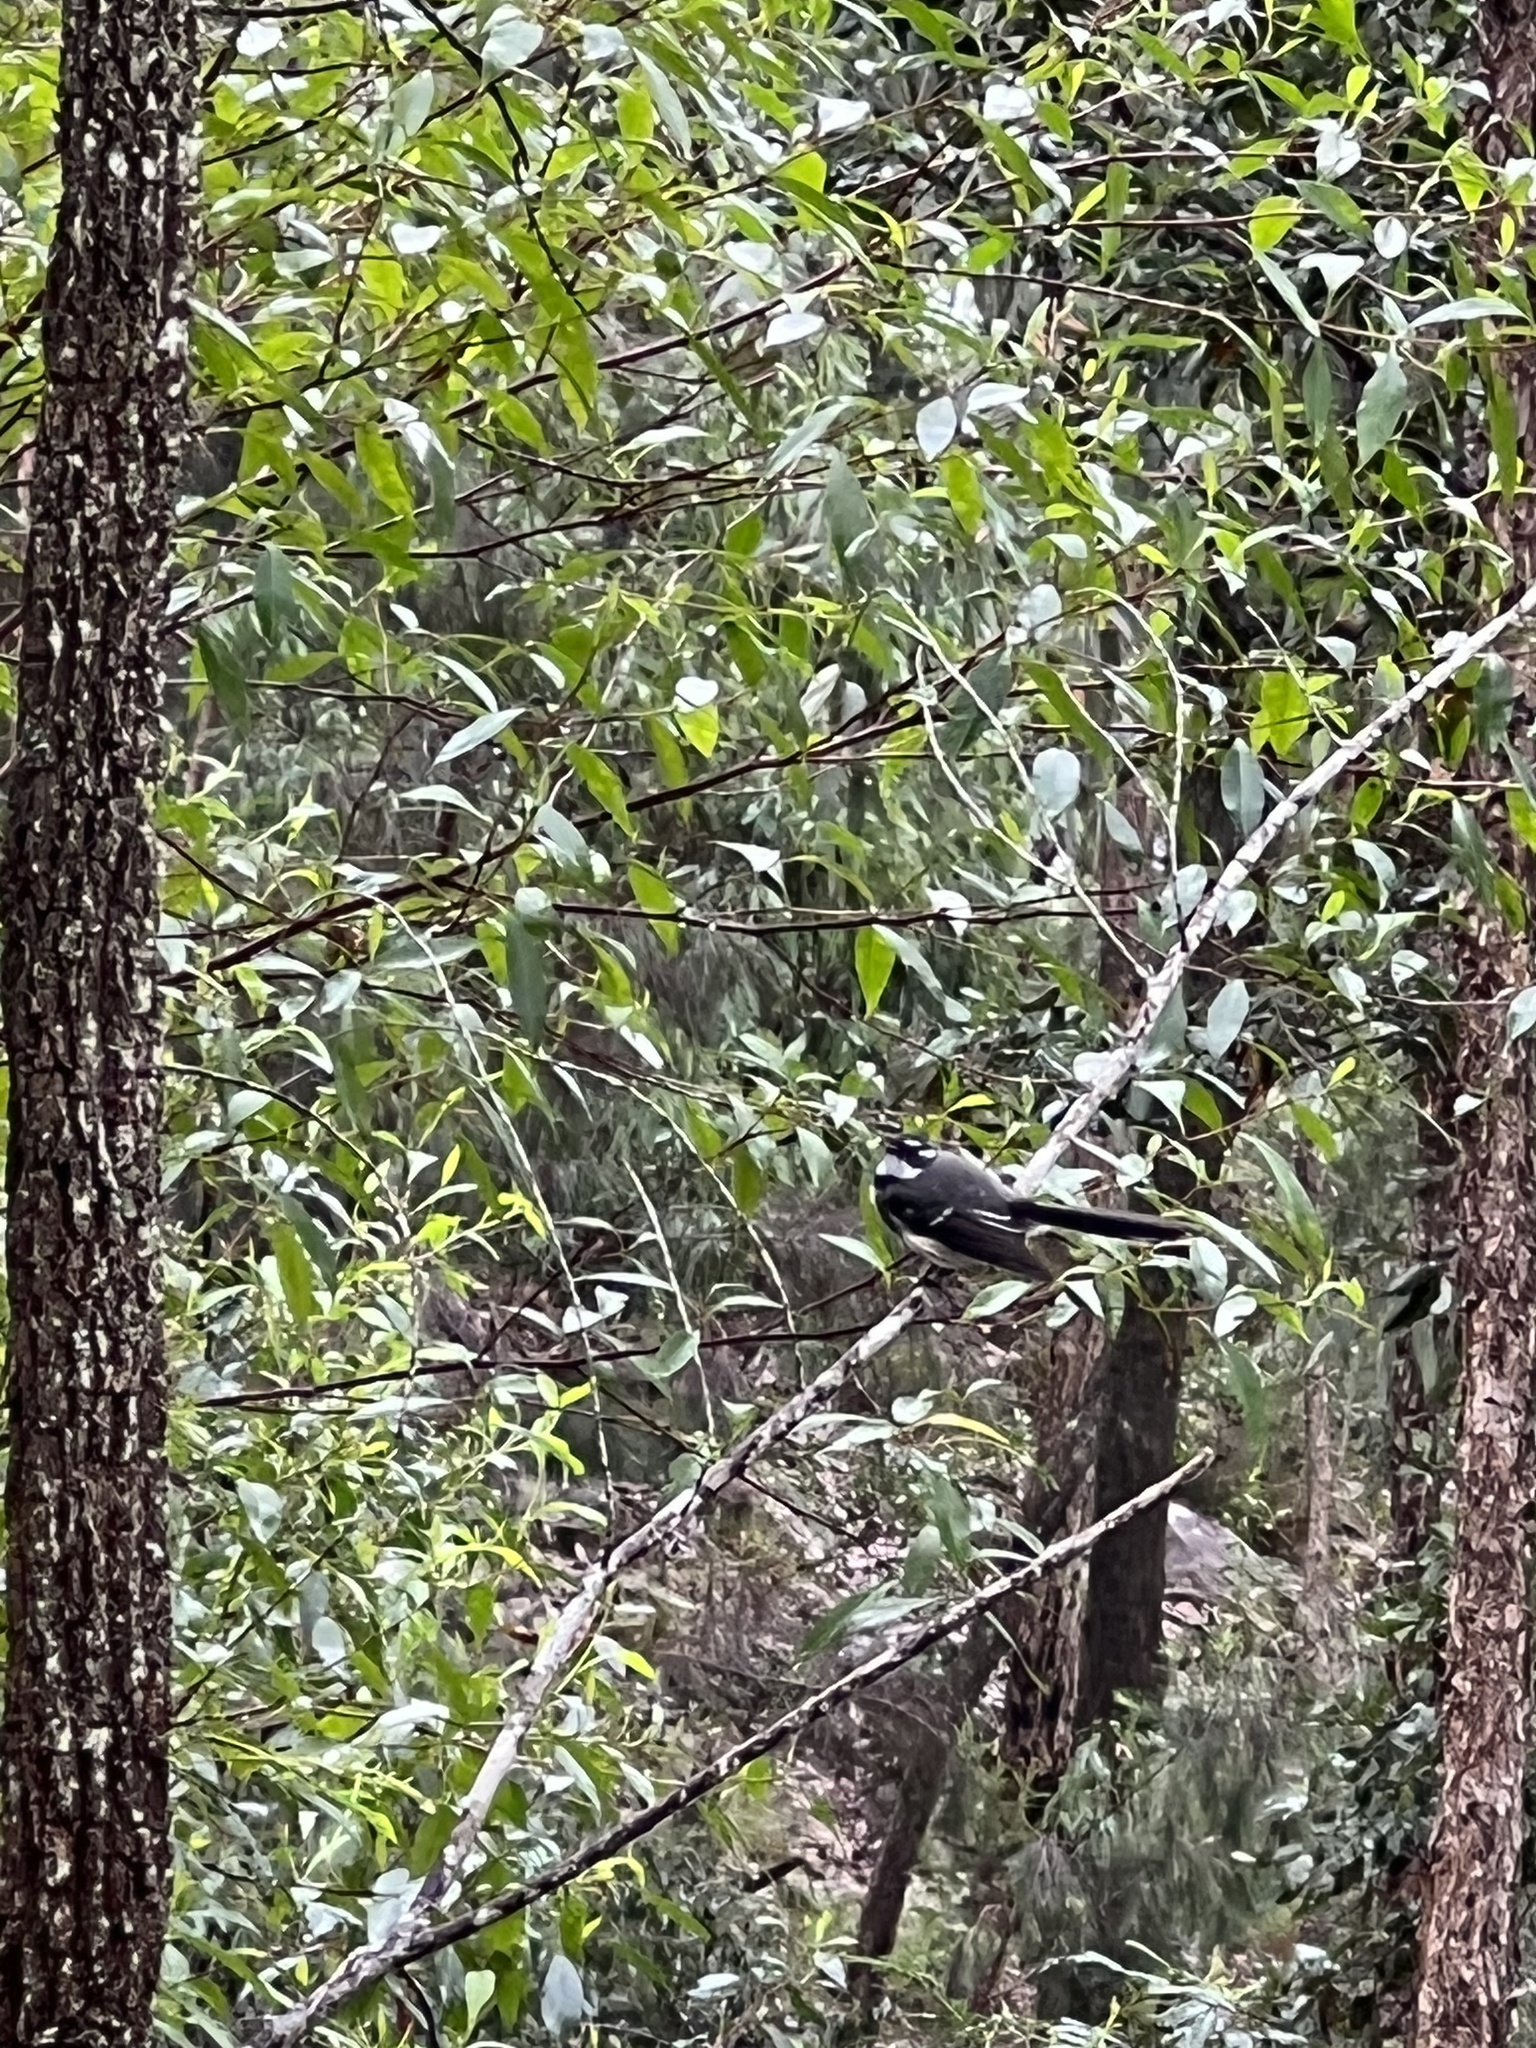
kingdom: Animalia
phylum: Chordata
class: Aves
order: Passeriformes
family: Rhipiduridae
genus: Rhipidura
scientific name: Rhipidura albiscapa
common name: Grey fantail
